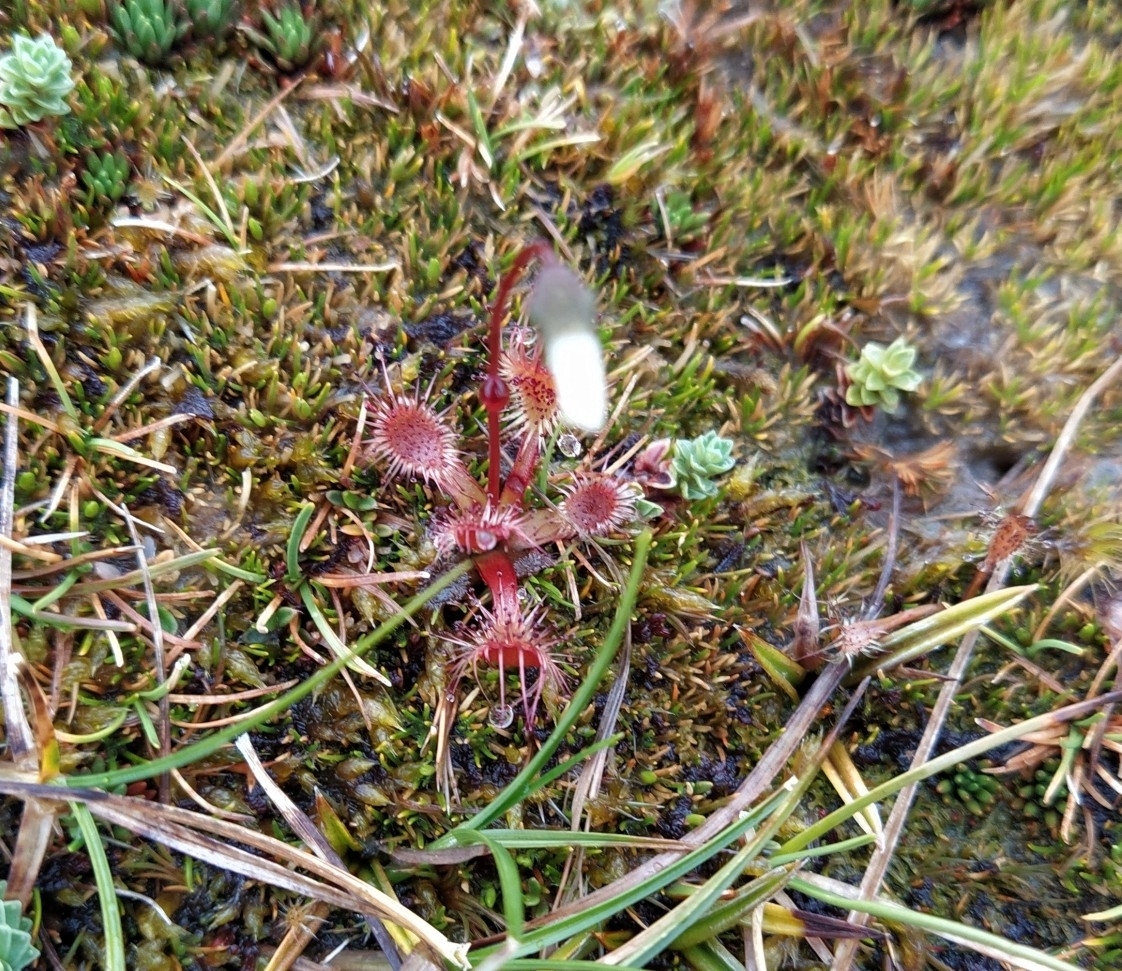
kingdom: Plantae
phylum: Tracheophyta
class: Magnoliopsida
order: Caryophyllales
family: Droseraceae
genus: Drosera
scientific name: Drosera stenopetala
